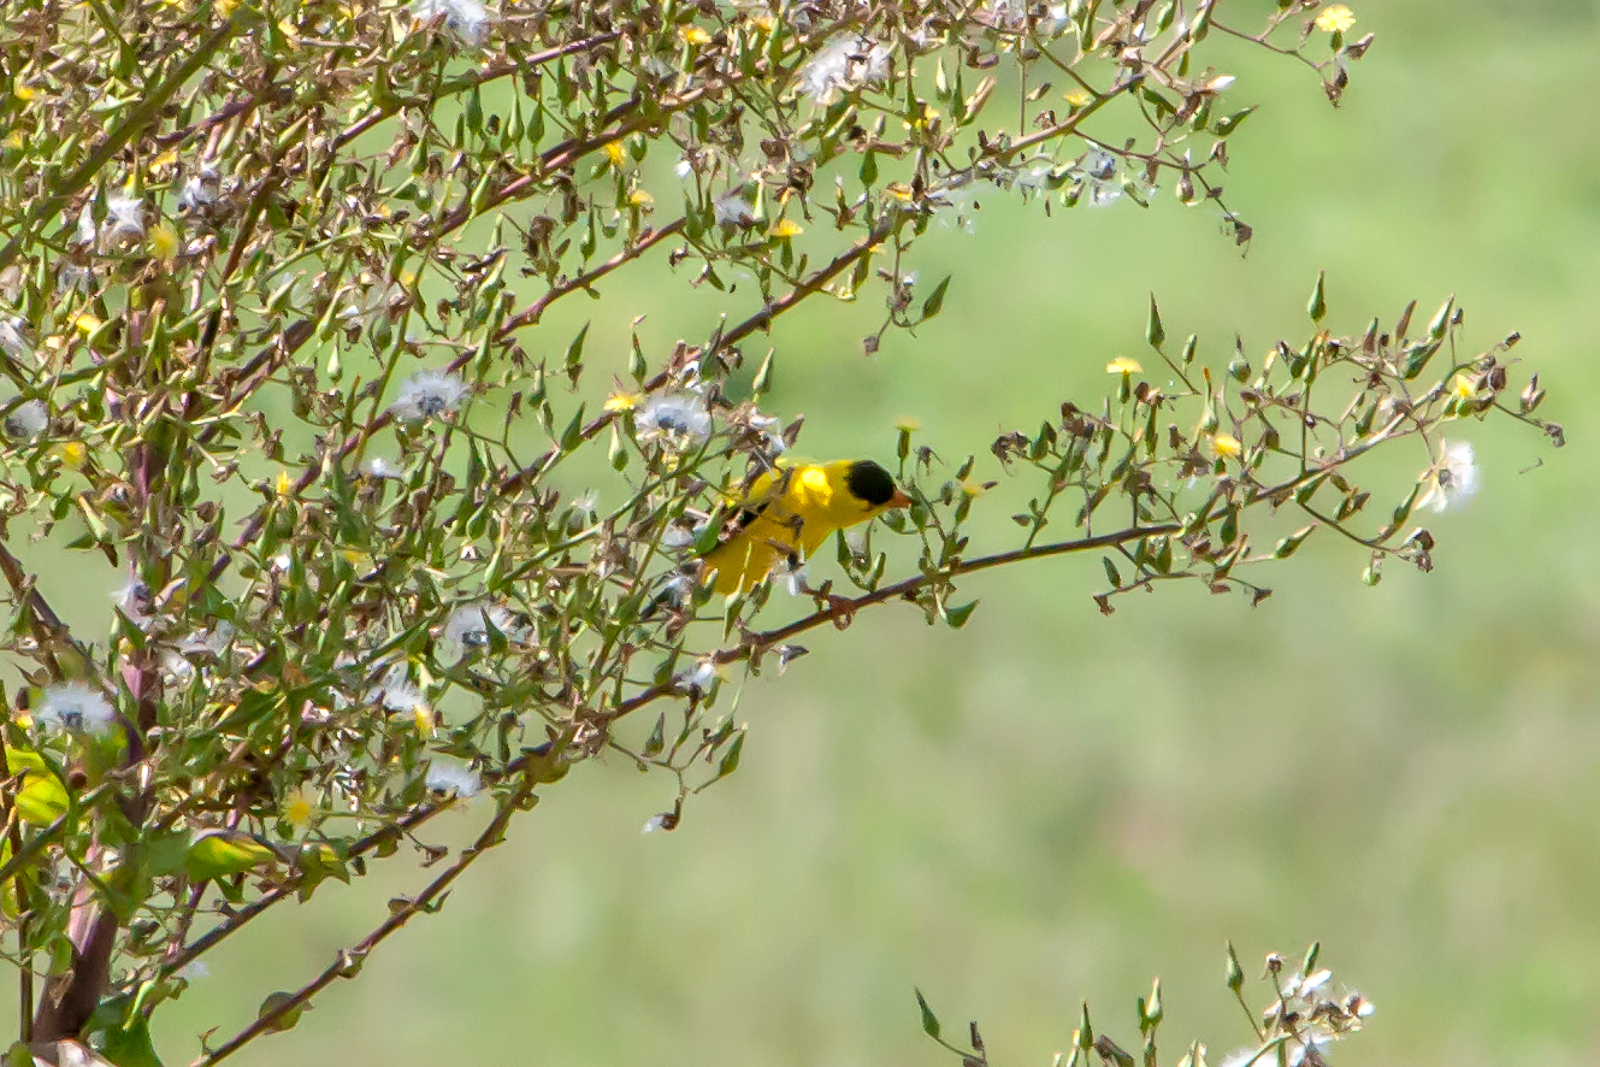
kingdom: Animalia
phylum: Chordata
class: Aves
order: Passeriformes
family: Fringillidae
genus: Spinus
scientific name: Spinus tristis
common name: American goldfinch
